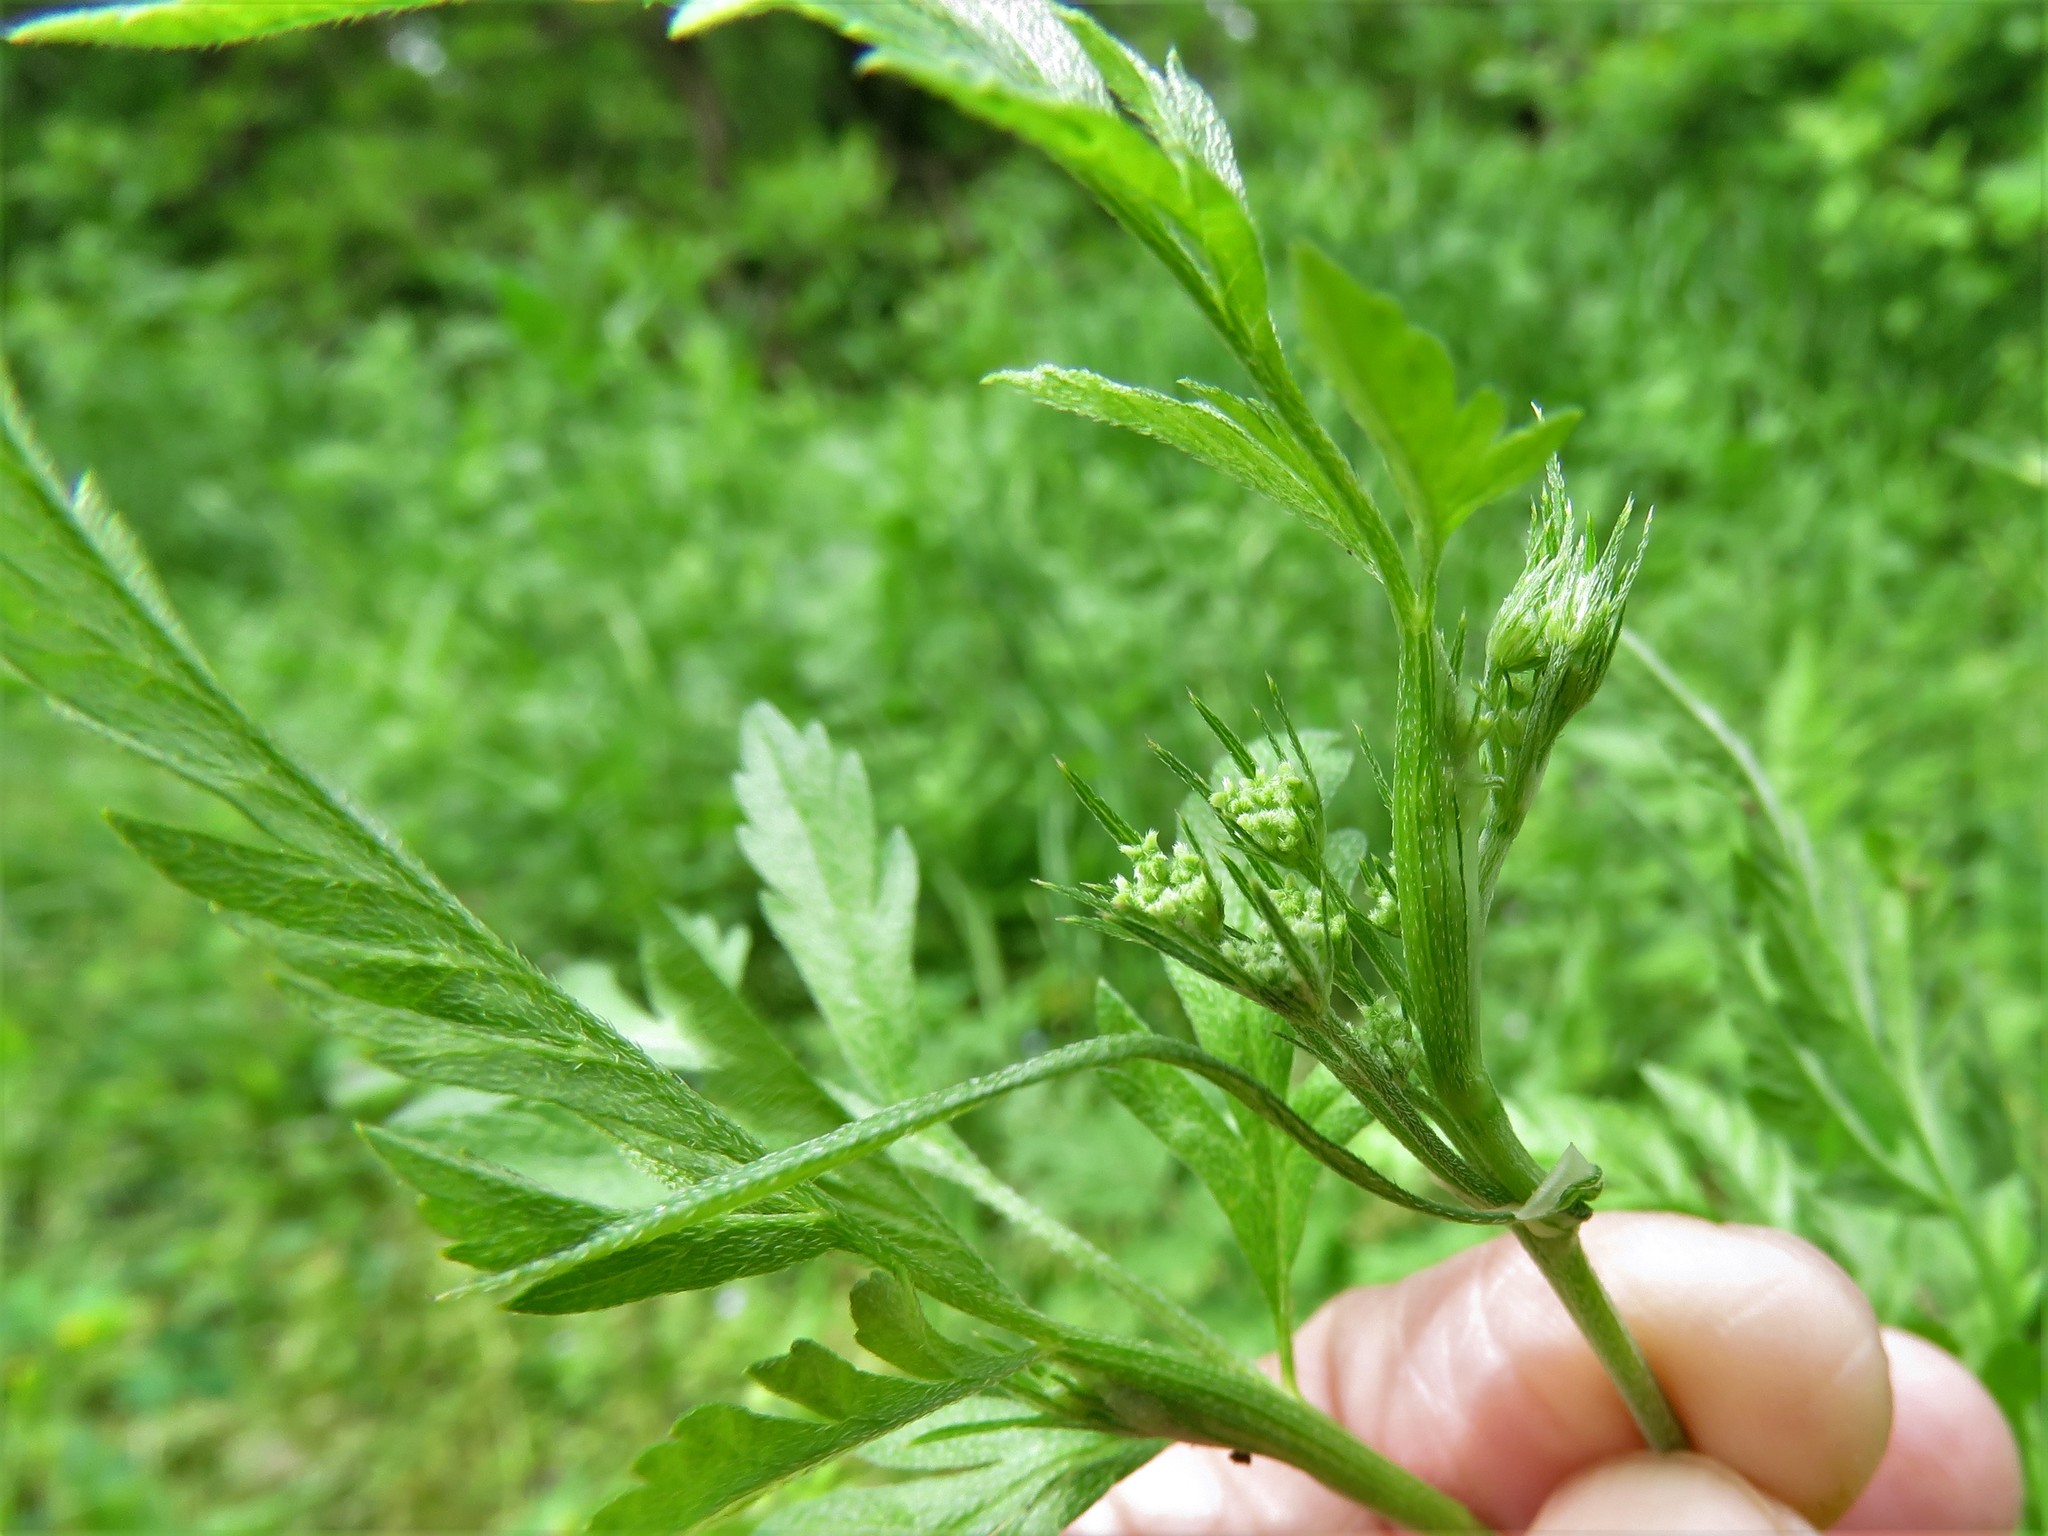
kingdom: Plantae
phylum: Tracheophyta
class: Magnoliopsida
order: Apiales
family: Apiaceae
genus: Torilis
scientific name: Torilis arvensis
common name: Spreading hedge-parsley
